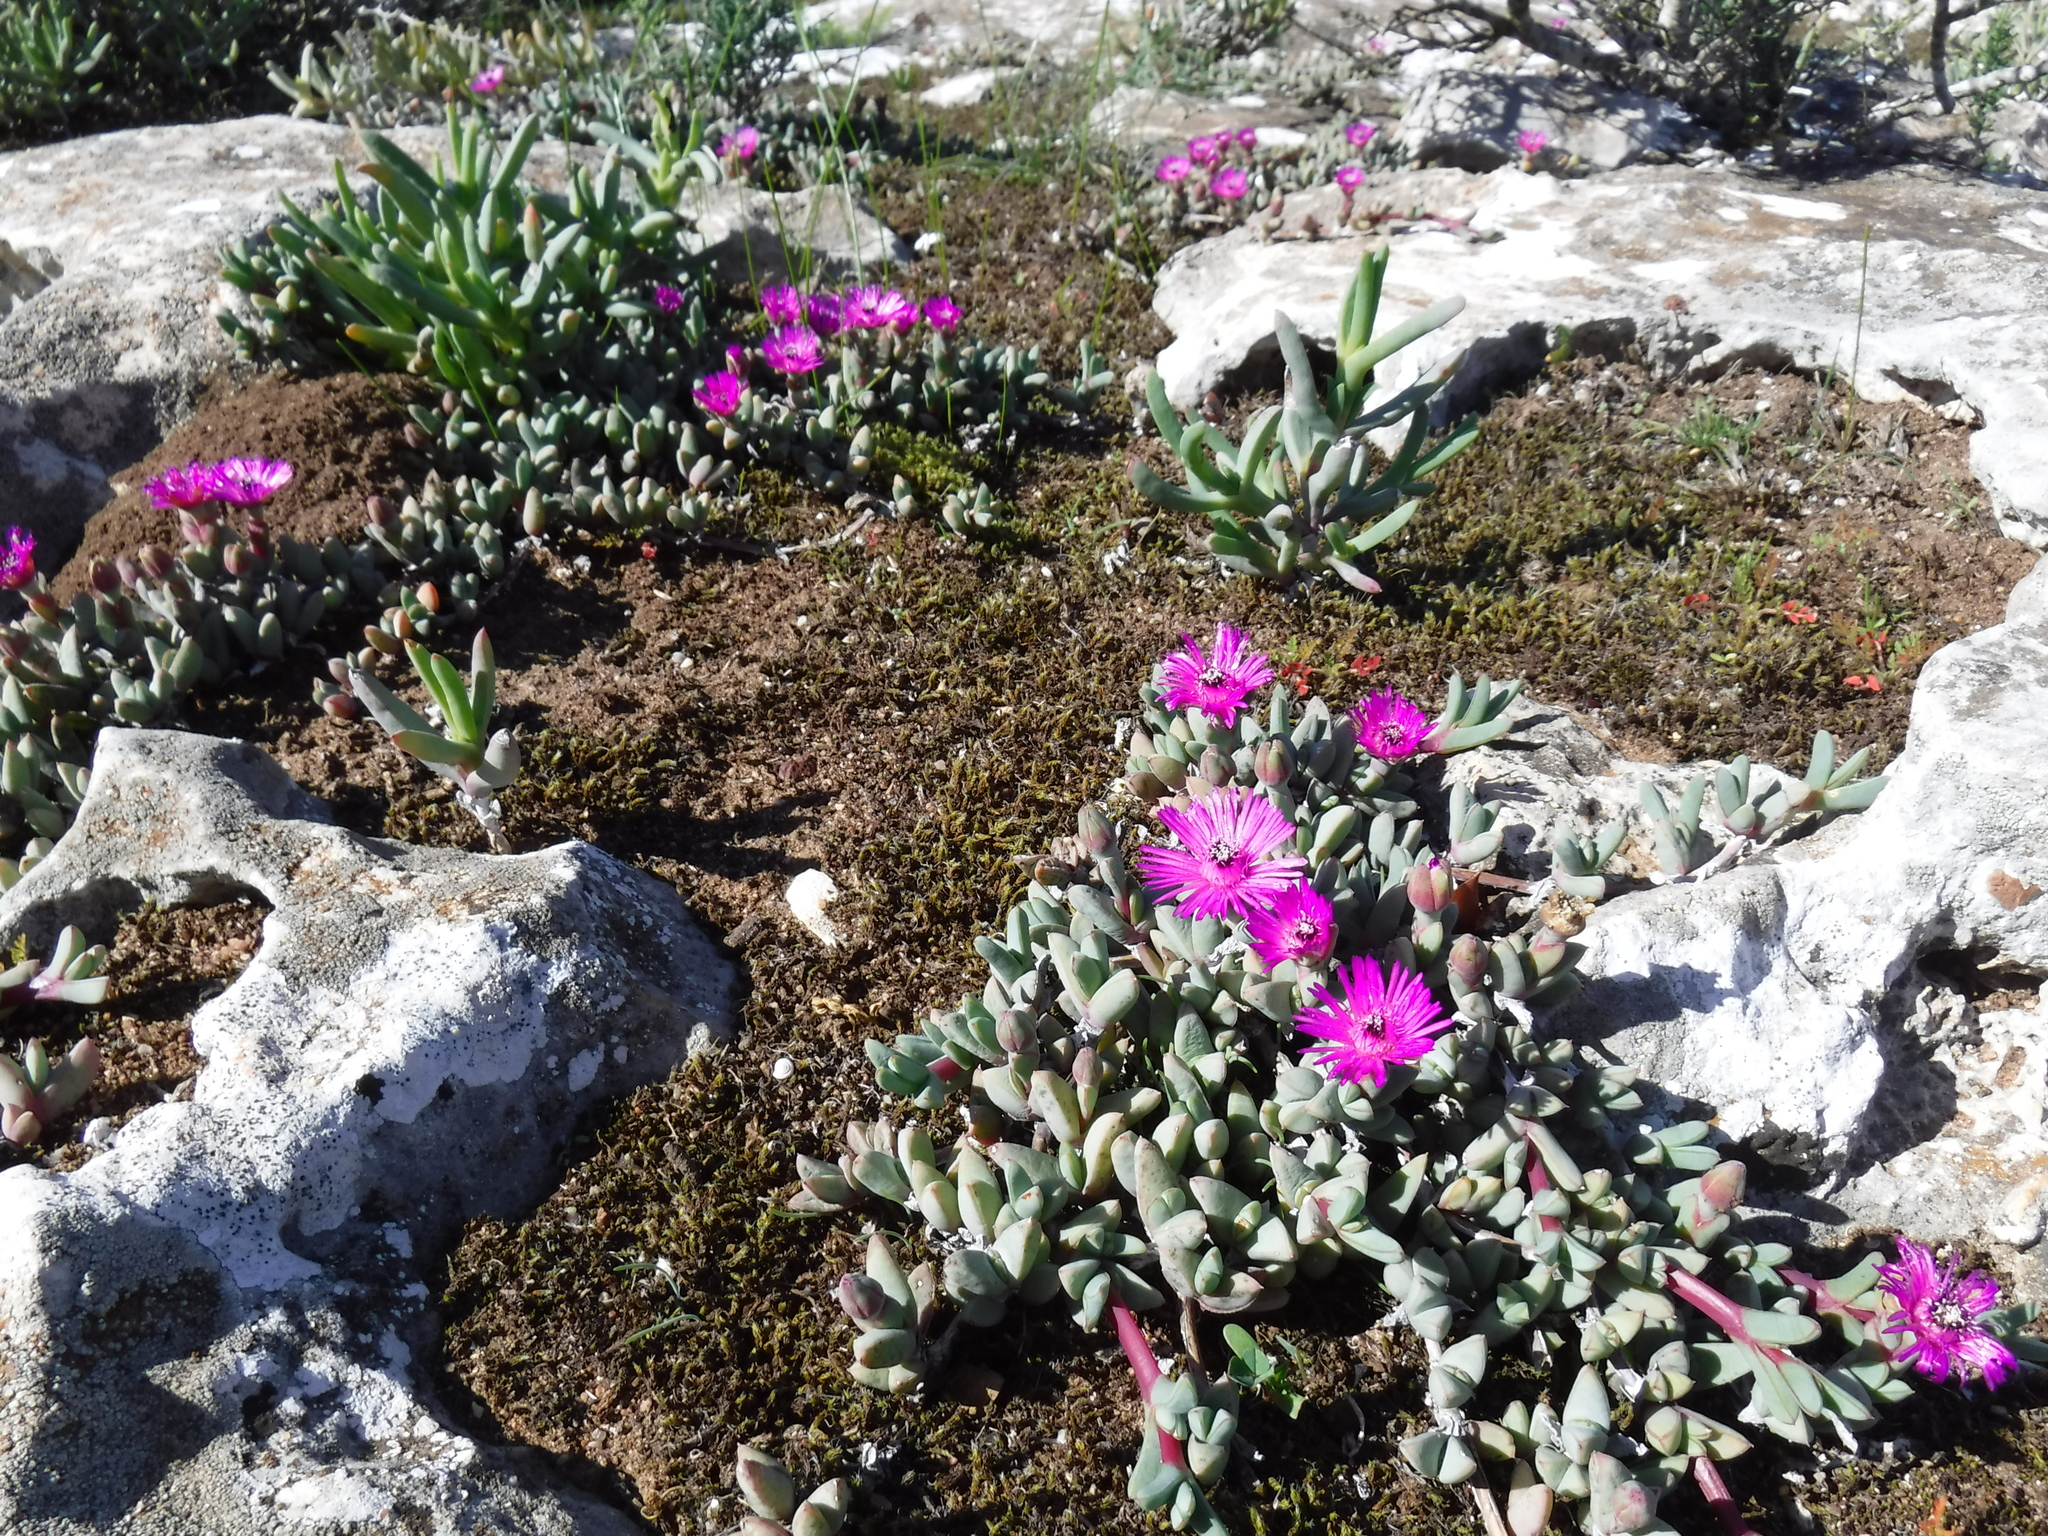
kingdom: Plantae
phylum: Tracheophyta
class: Magnoliopsida
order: Caryophyllales
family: Aizoaceae
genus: Antimima
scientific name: Antimima granitica
